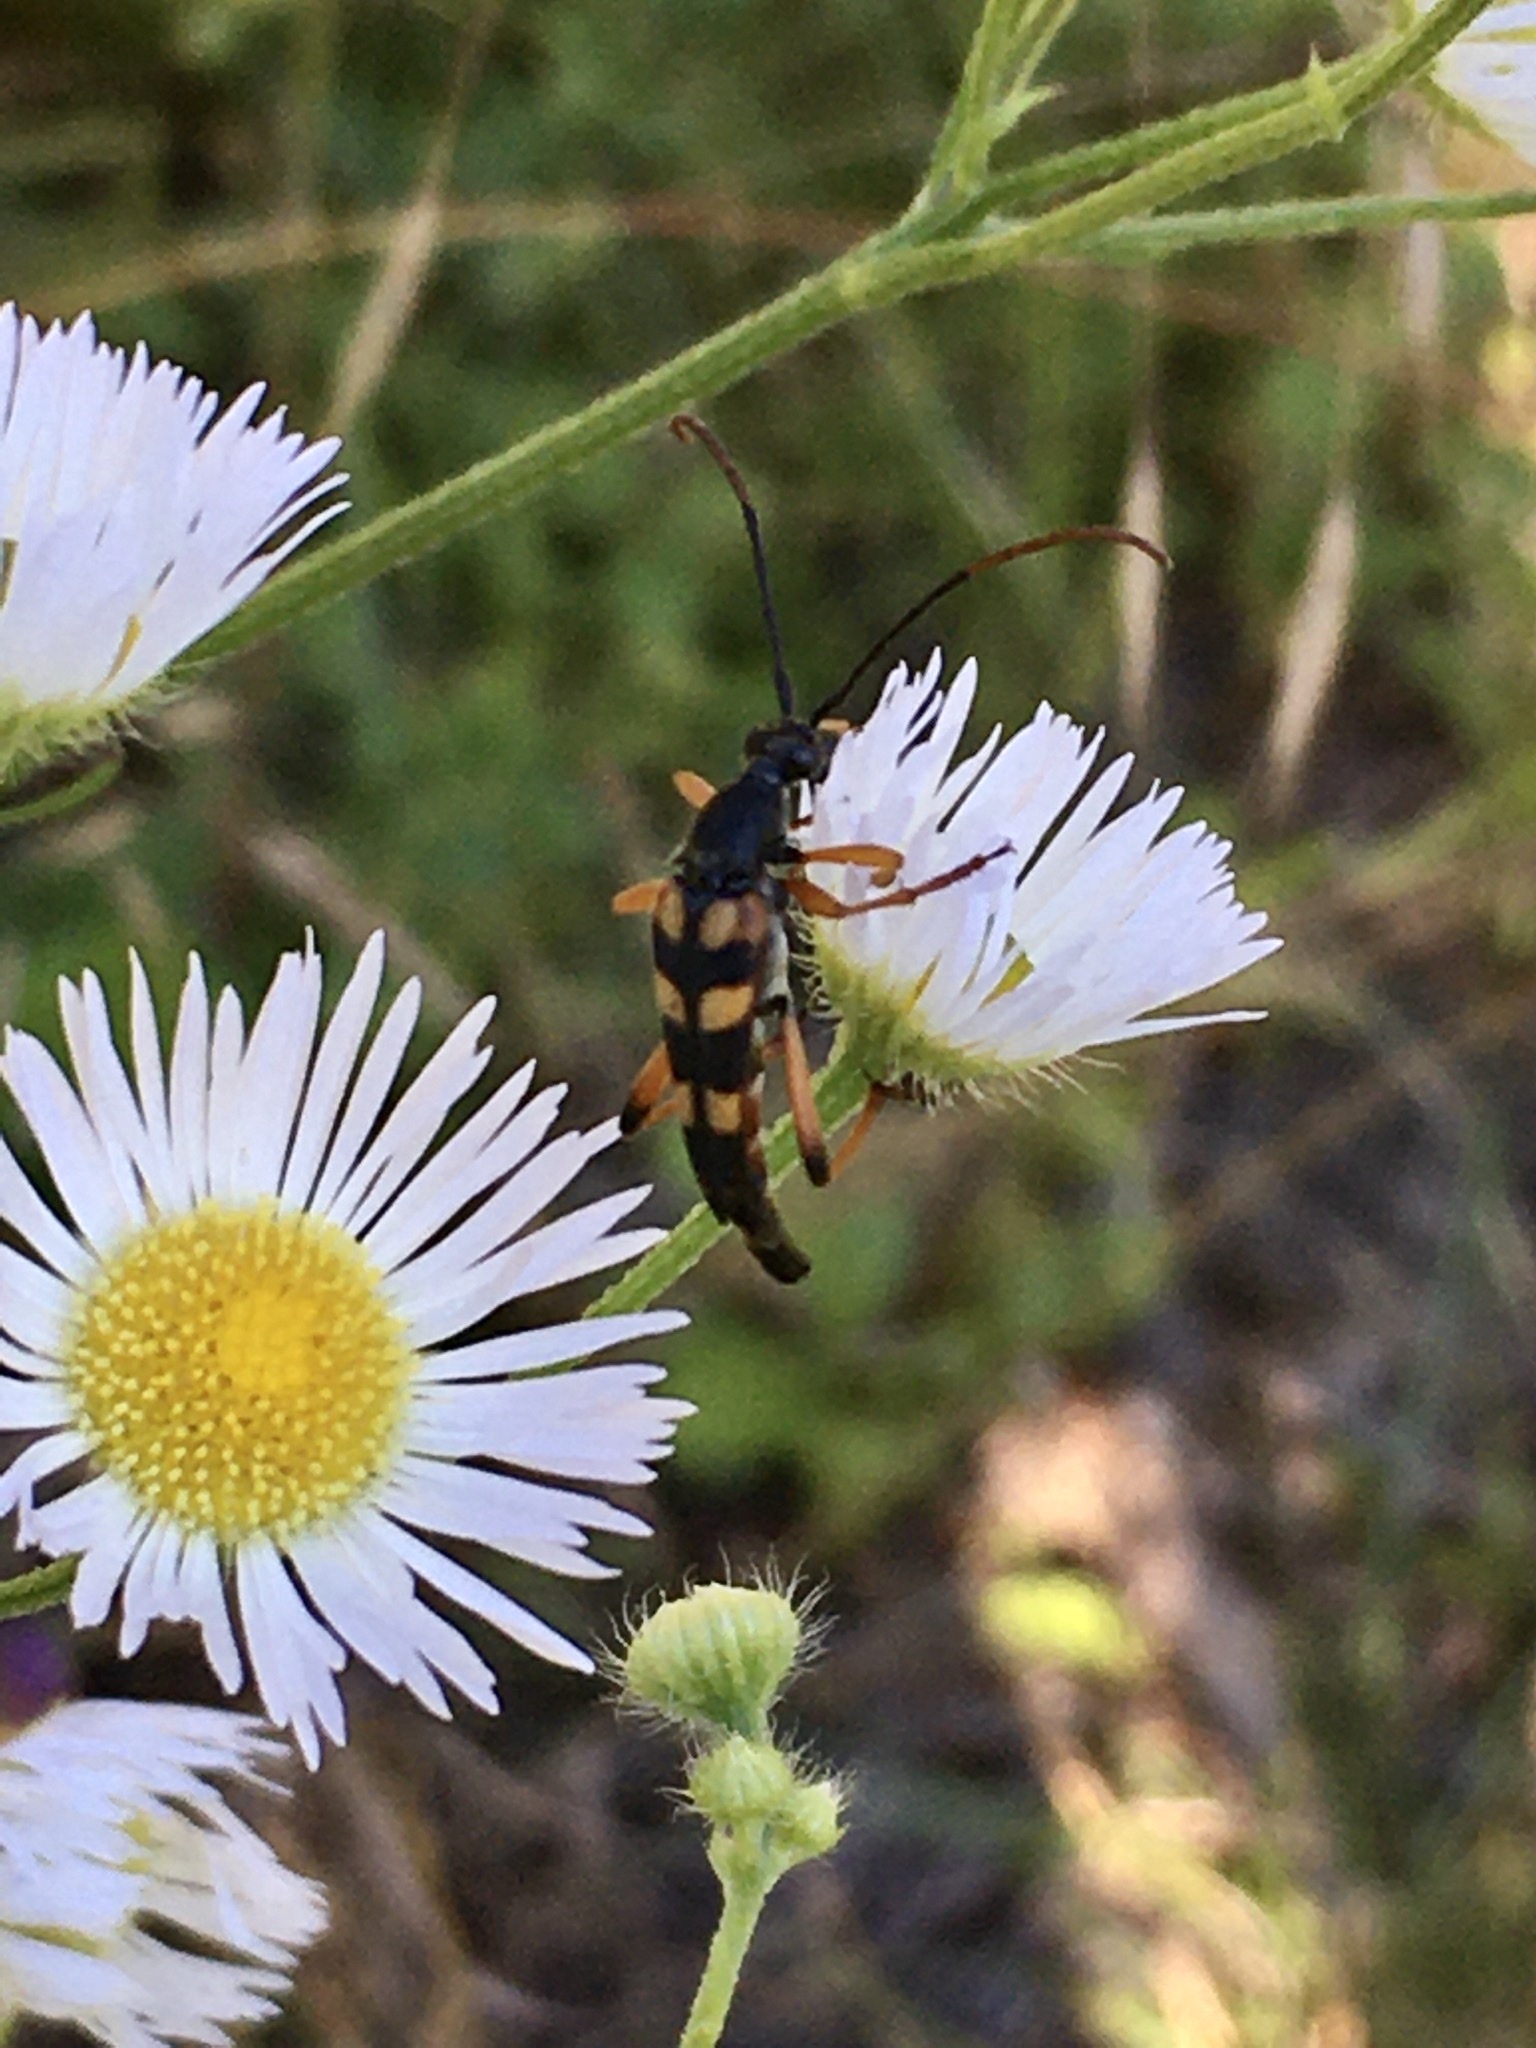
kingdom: Animalia
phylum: Arthropoda
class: Insecta
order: Coleoptera
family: Cerambycidae
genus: Strangalia
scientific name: Strangalia attenuata
